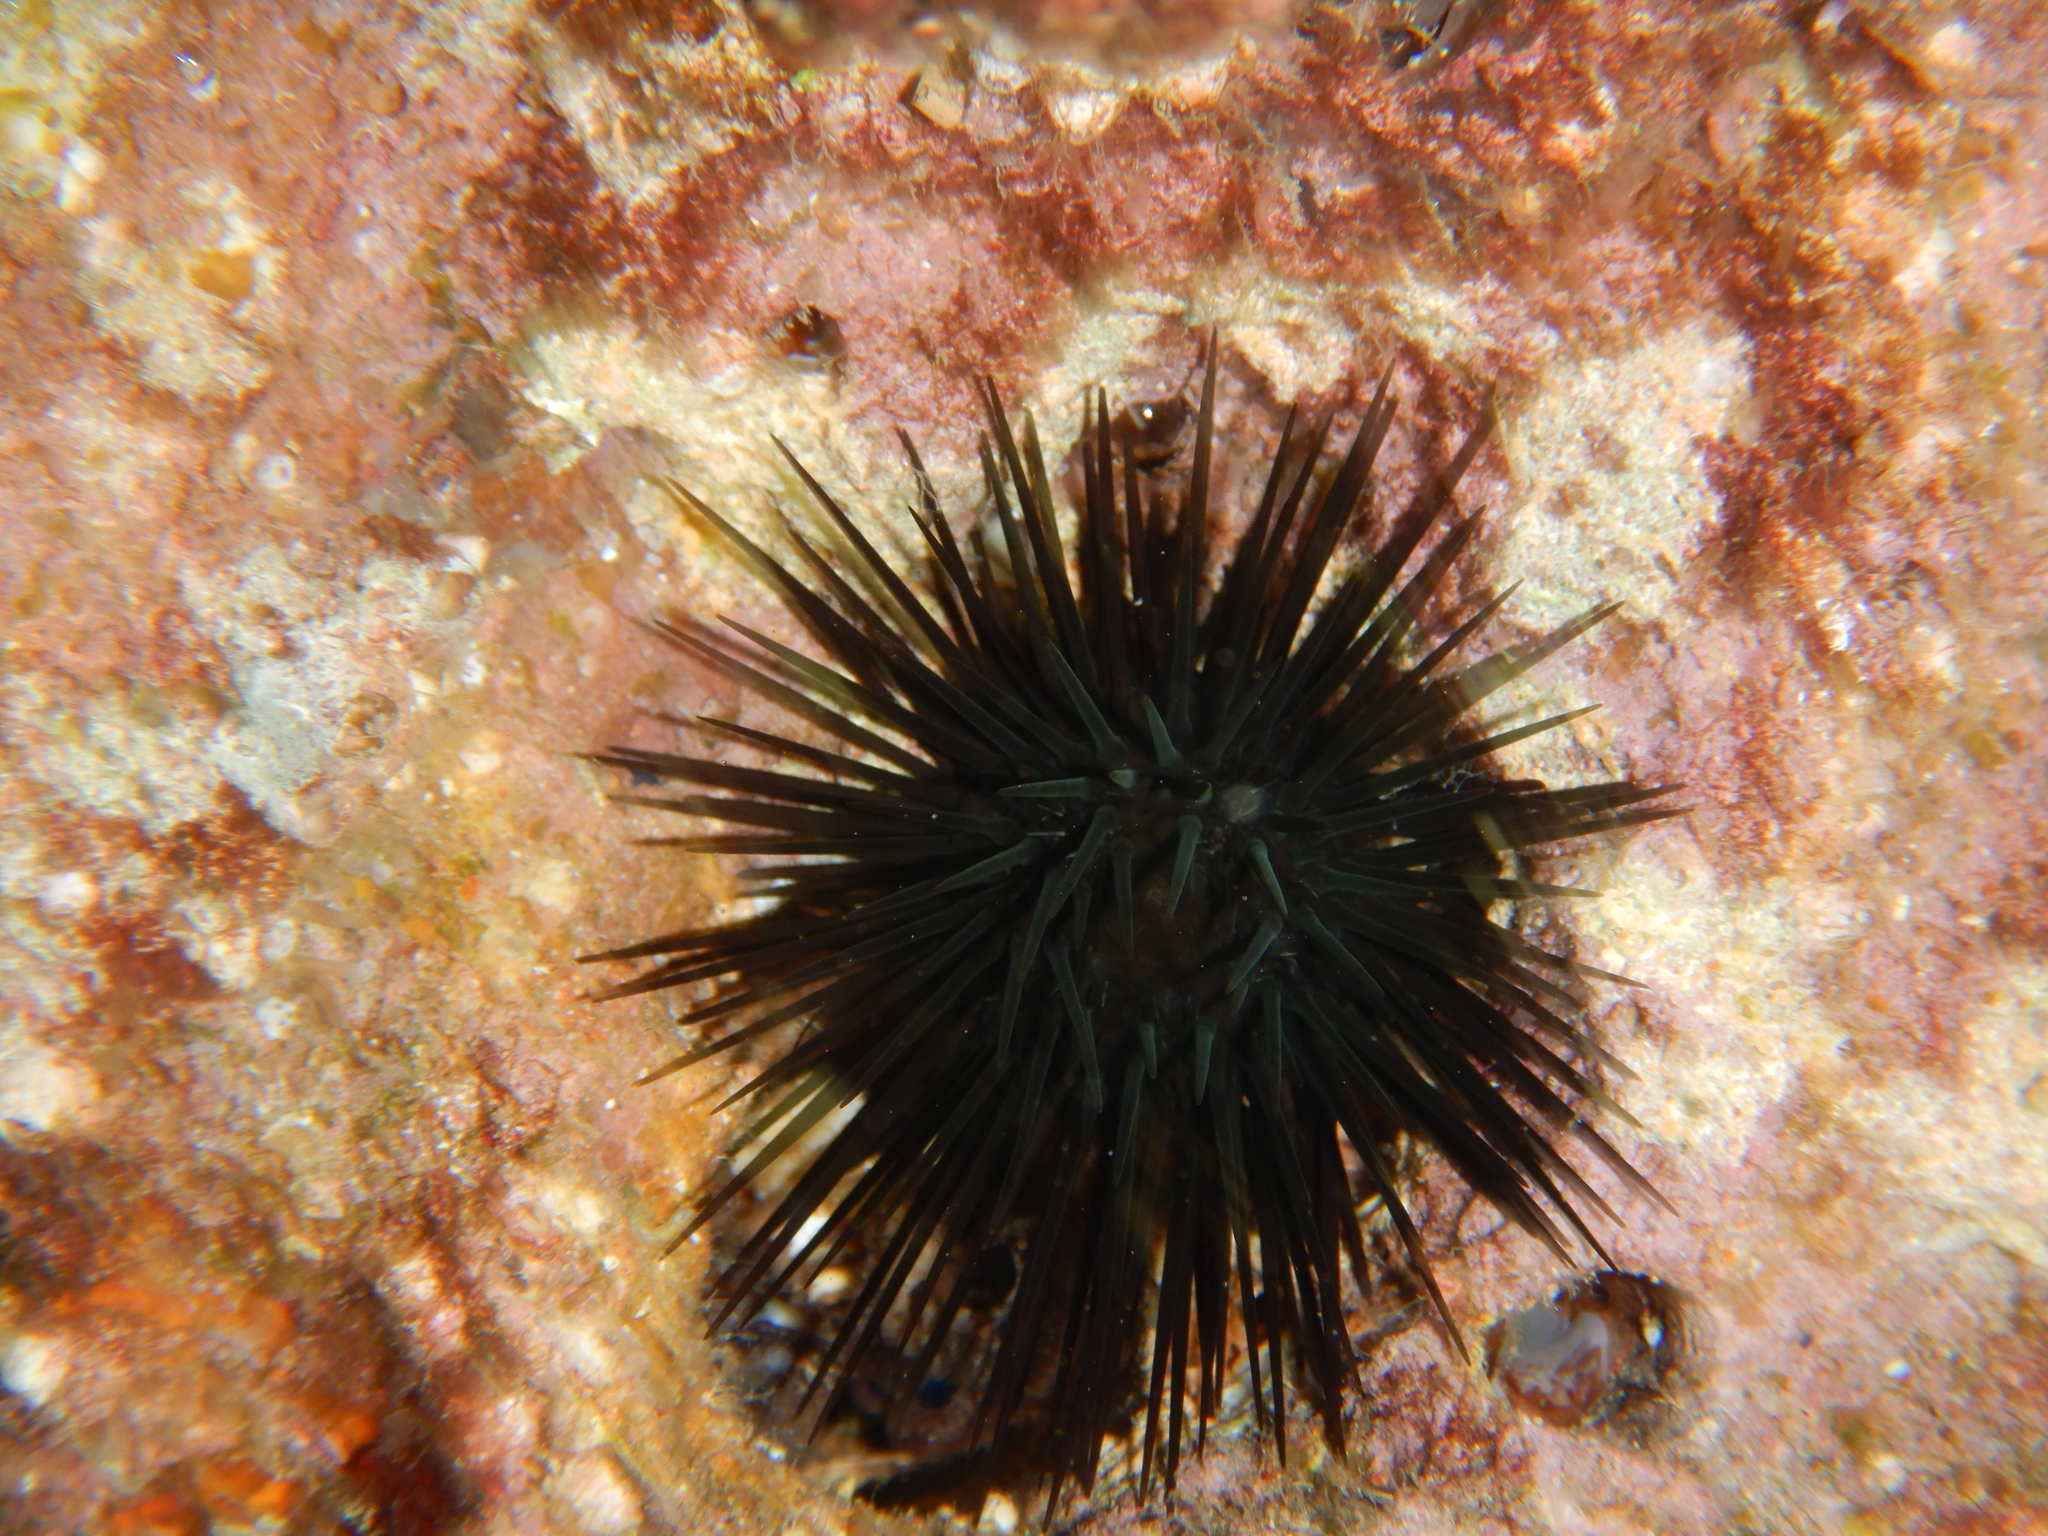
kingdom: Animalia
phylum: Echinodermata
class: Echinoidea
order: Arbacioida
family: Arbaciidae
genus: Arbacia
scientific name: Arbacia lixula
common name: Black sea urchin
